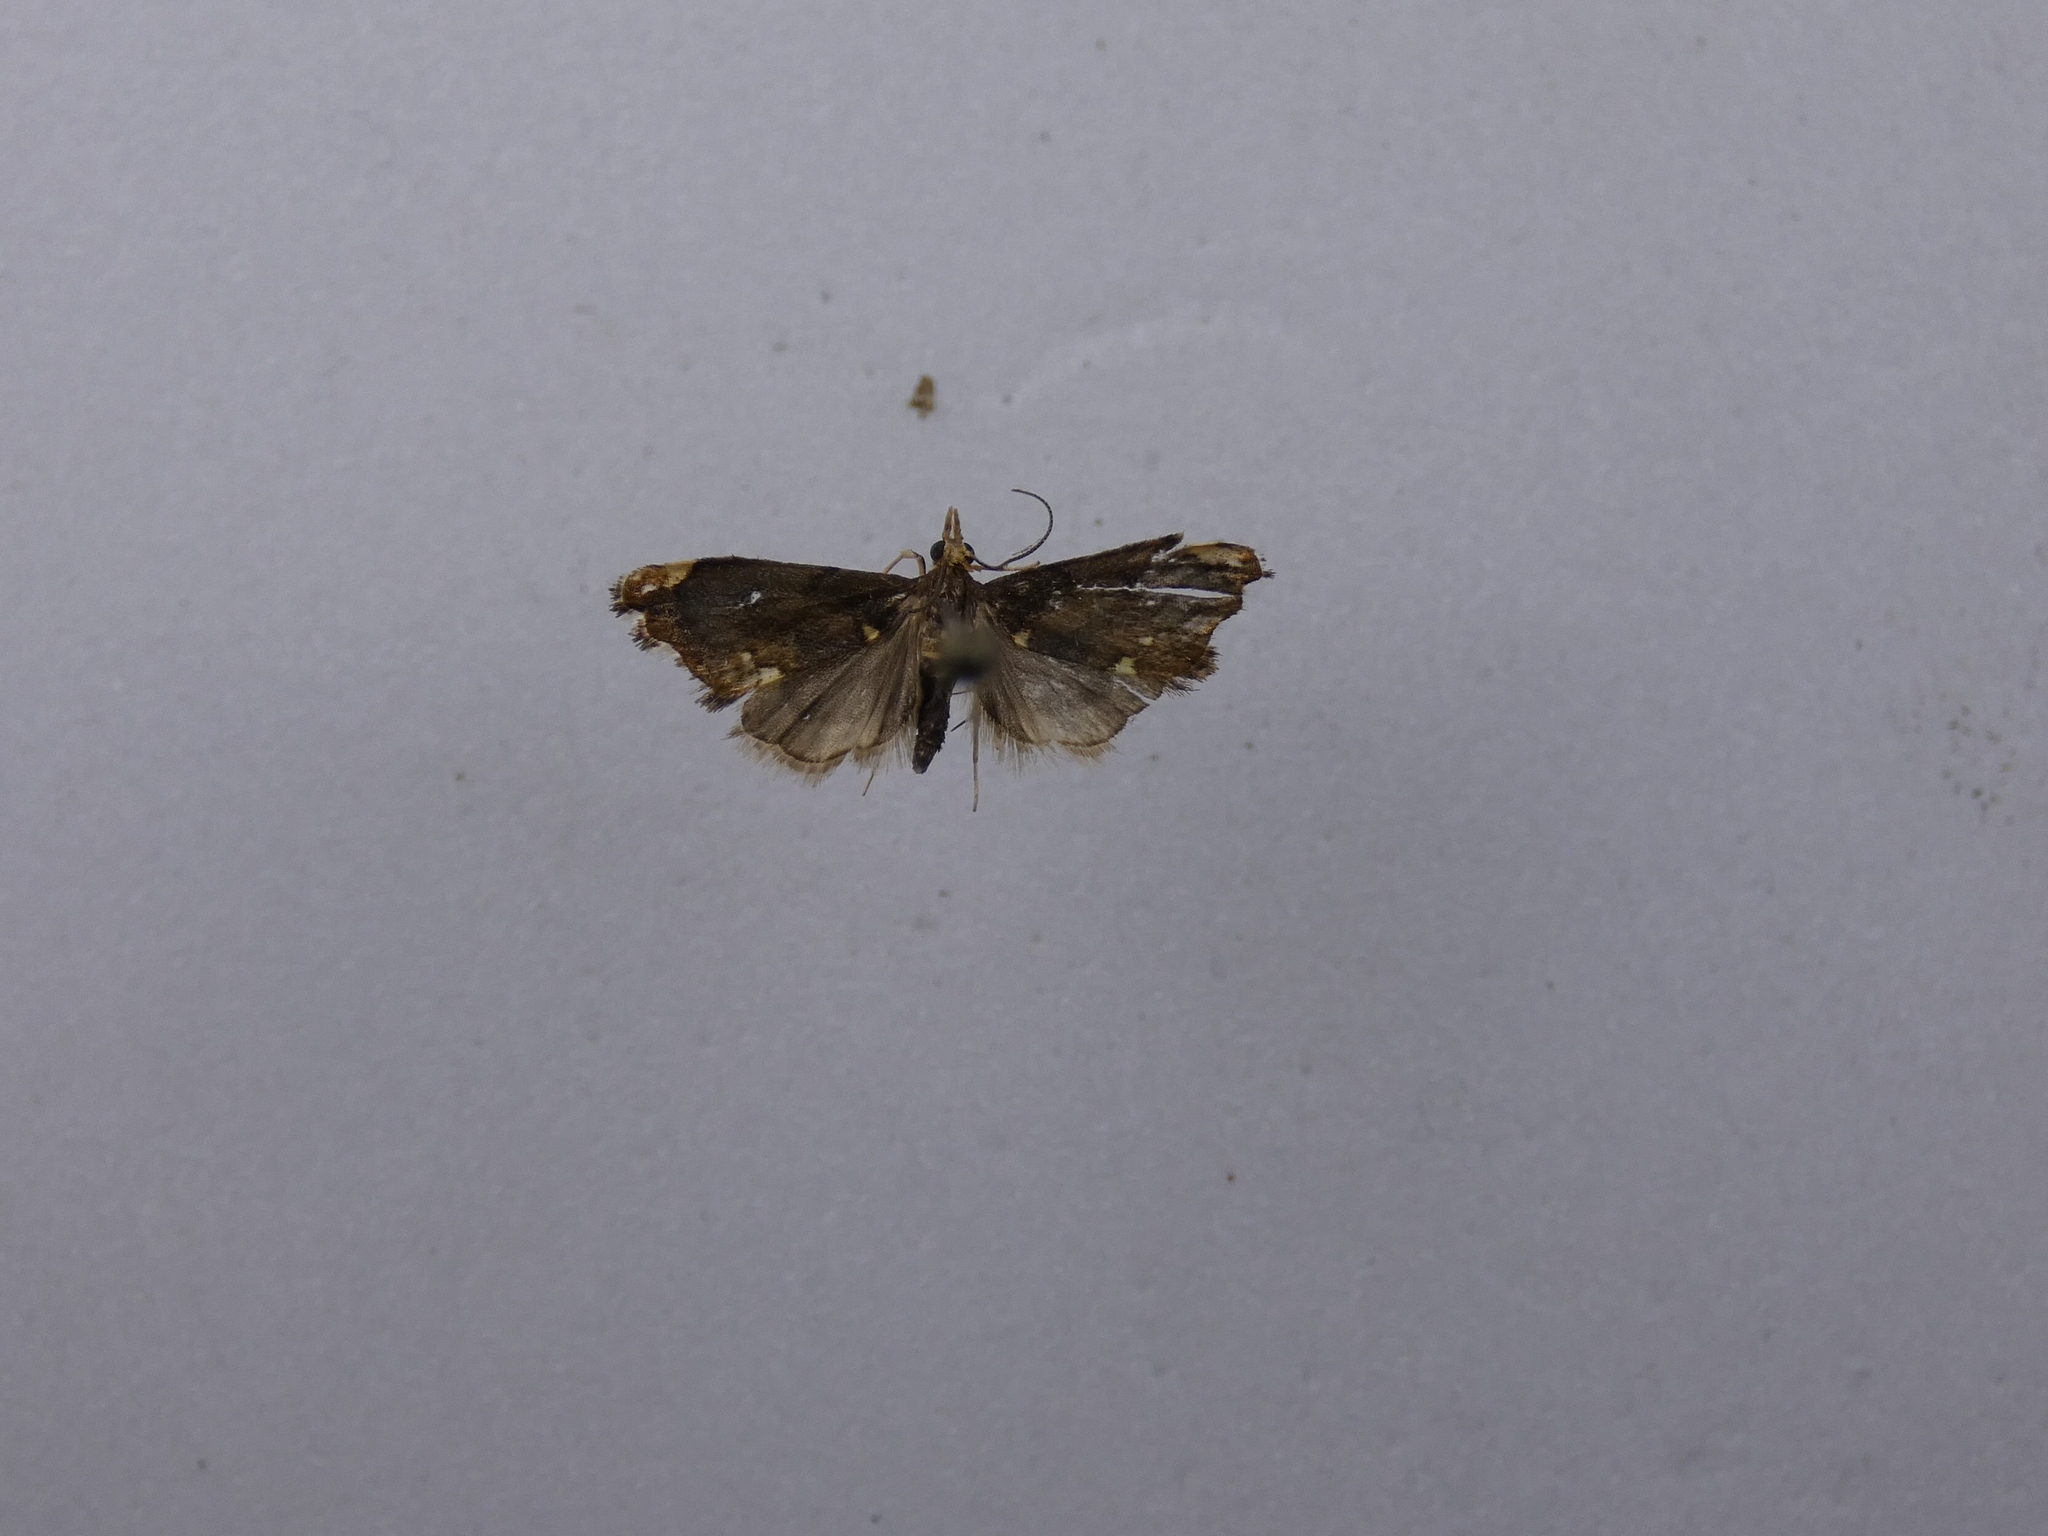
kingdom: Animalia
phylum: Arthropoda
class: Insecta
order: Lepidoptera
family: Crambidae
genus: Glaucocharis
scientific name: Glaucocharis pyrsophanes
